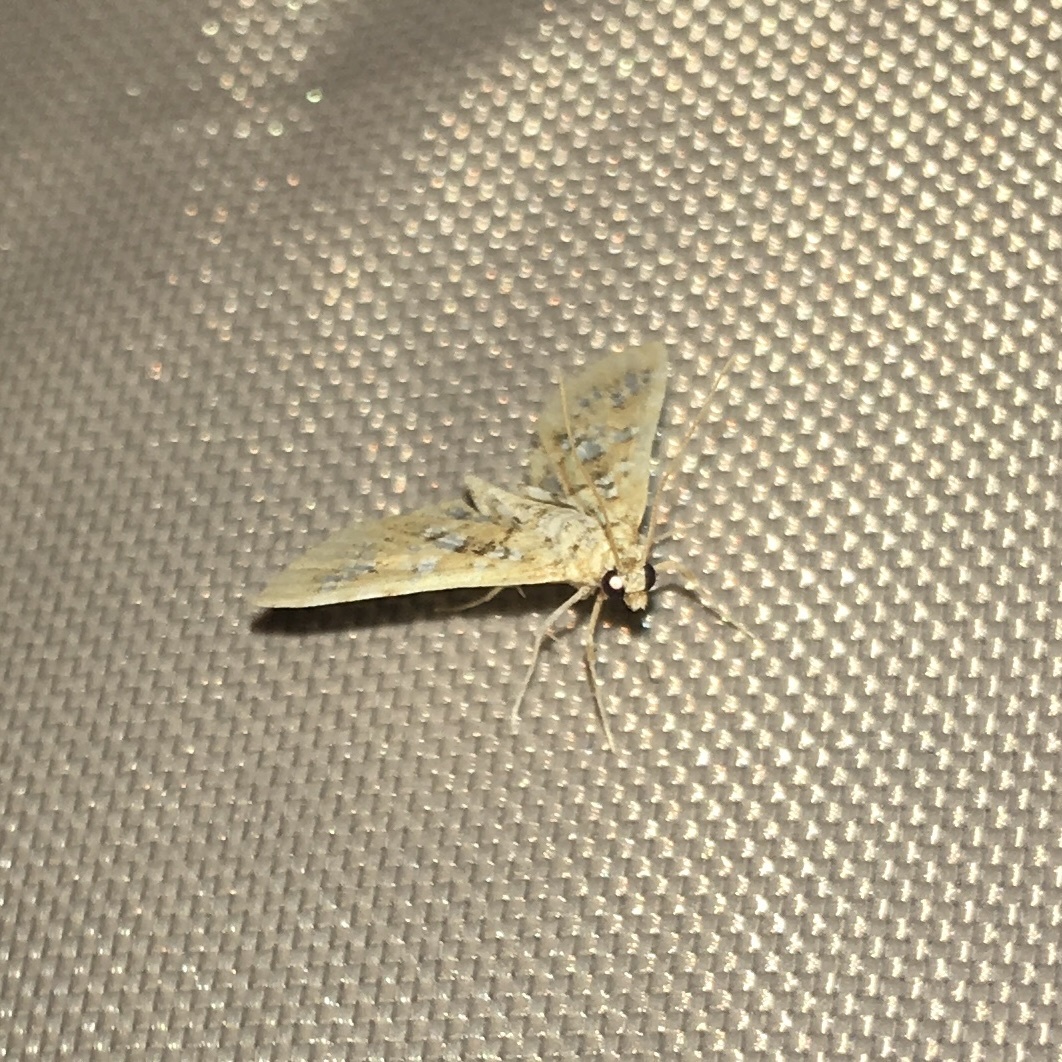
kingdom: Animalia
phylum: Arthropoda
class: Insecta
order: Lepidoptera
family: Crambidae
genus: Samea
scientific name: Samea multiplicalis
